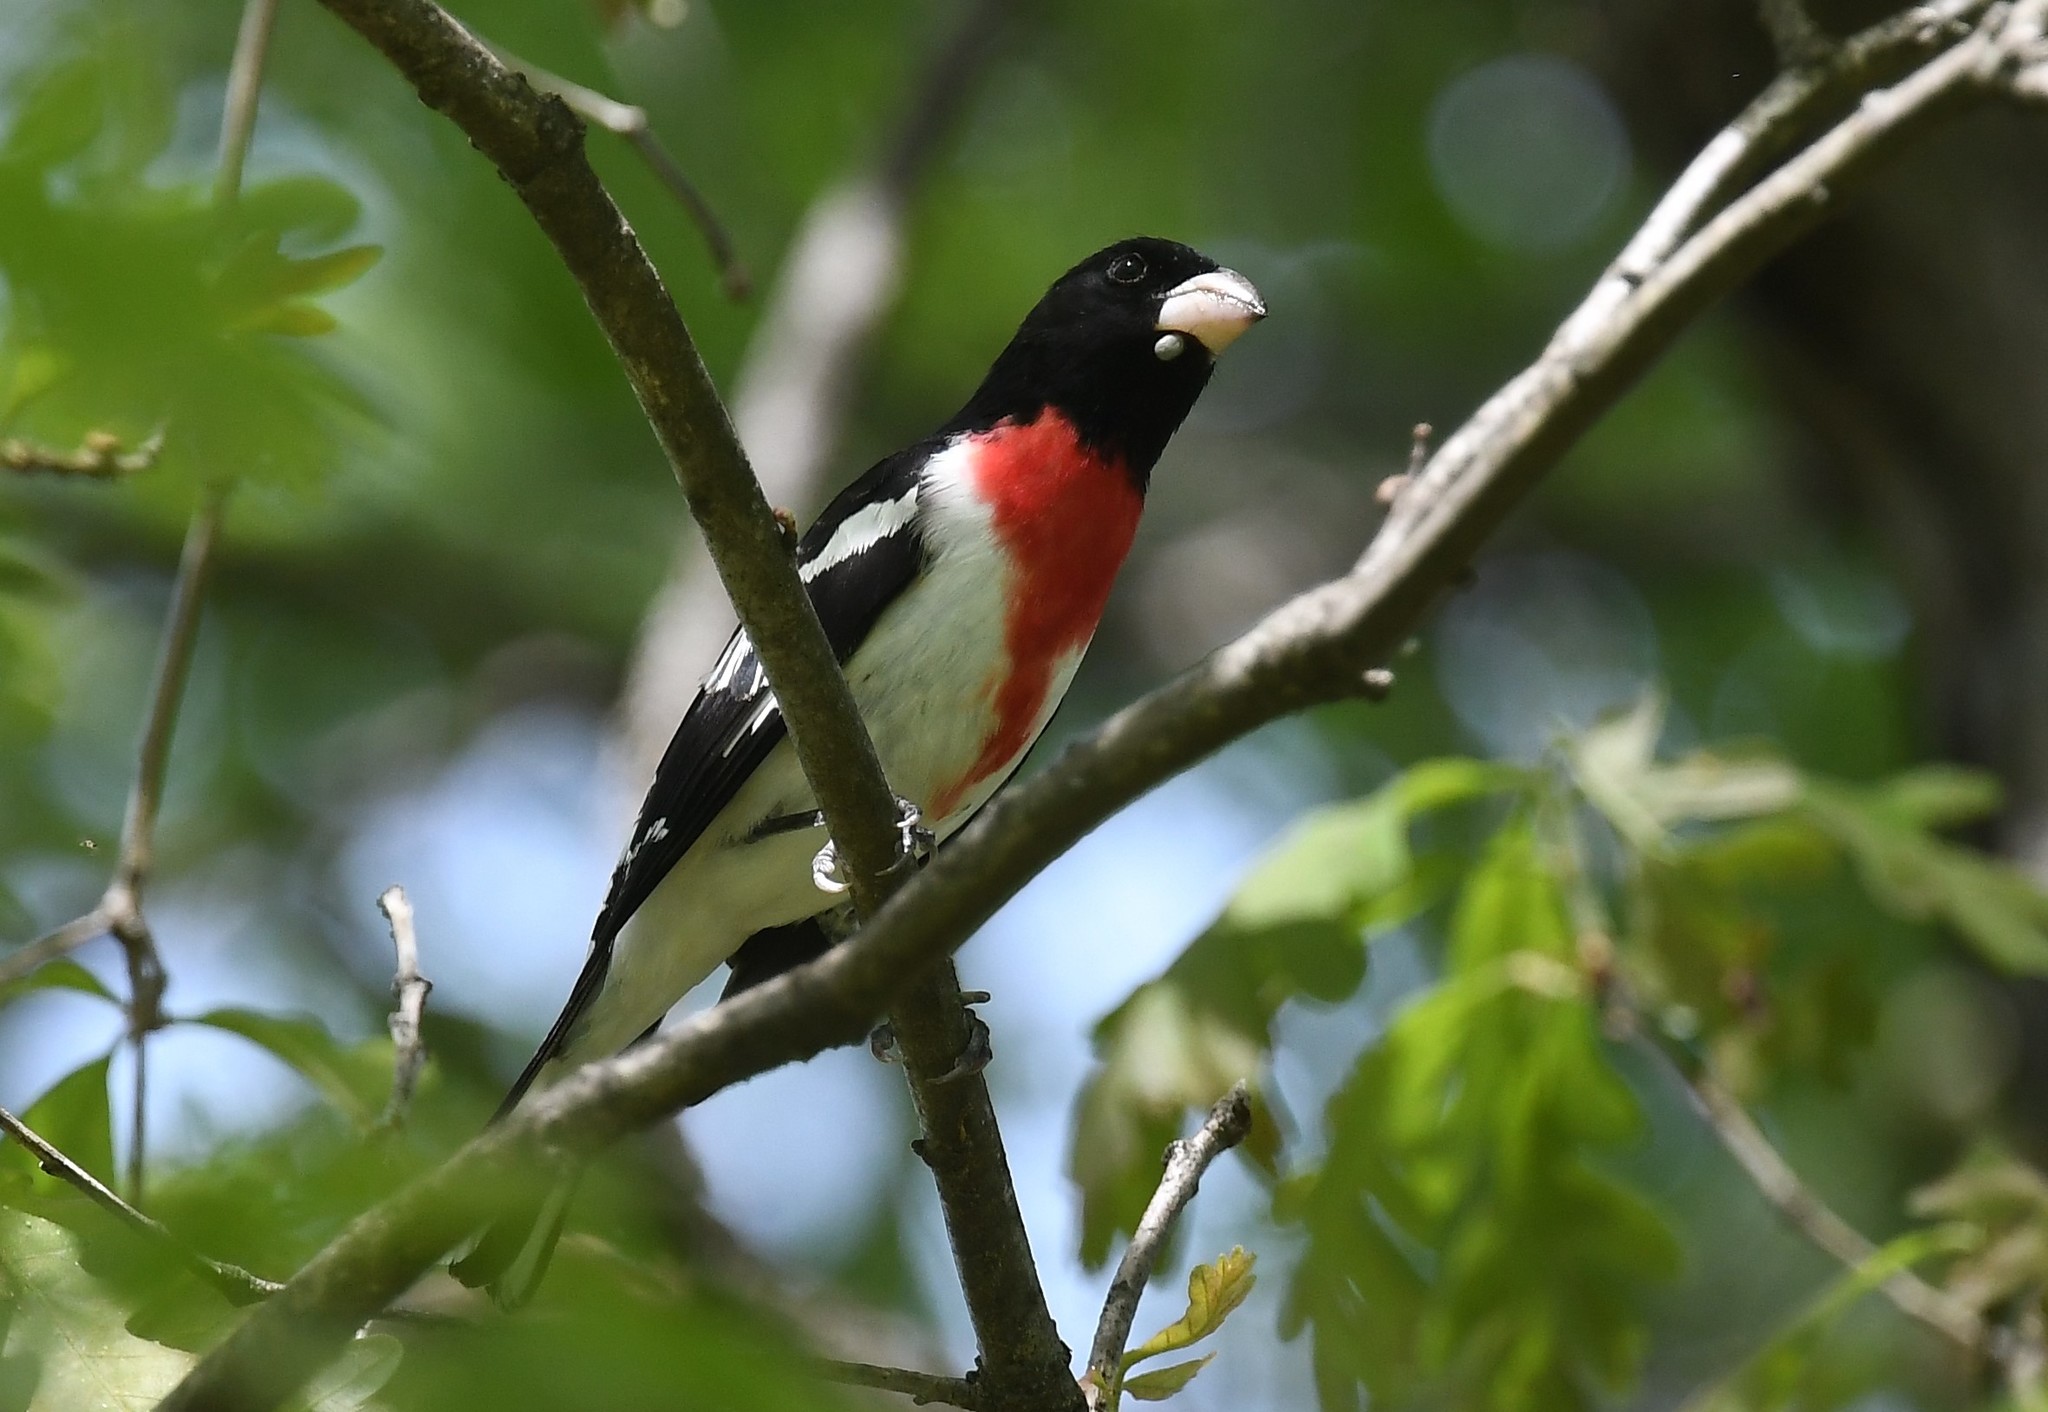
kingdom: Animalia
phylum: Chordata
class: Aves
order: Passeriformes
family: Cardinalidae
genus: Pheucticus
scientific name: Pheucticus ludovicianus
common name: Rose-breasted grosbeak
